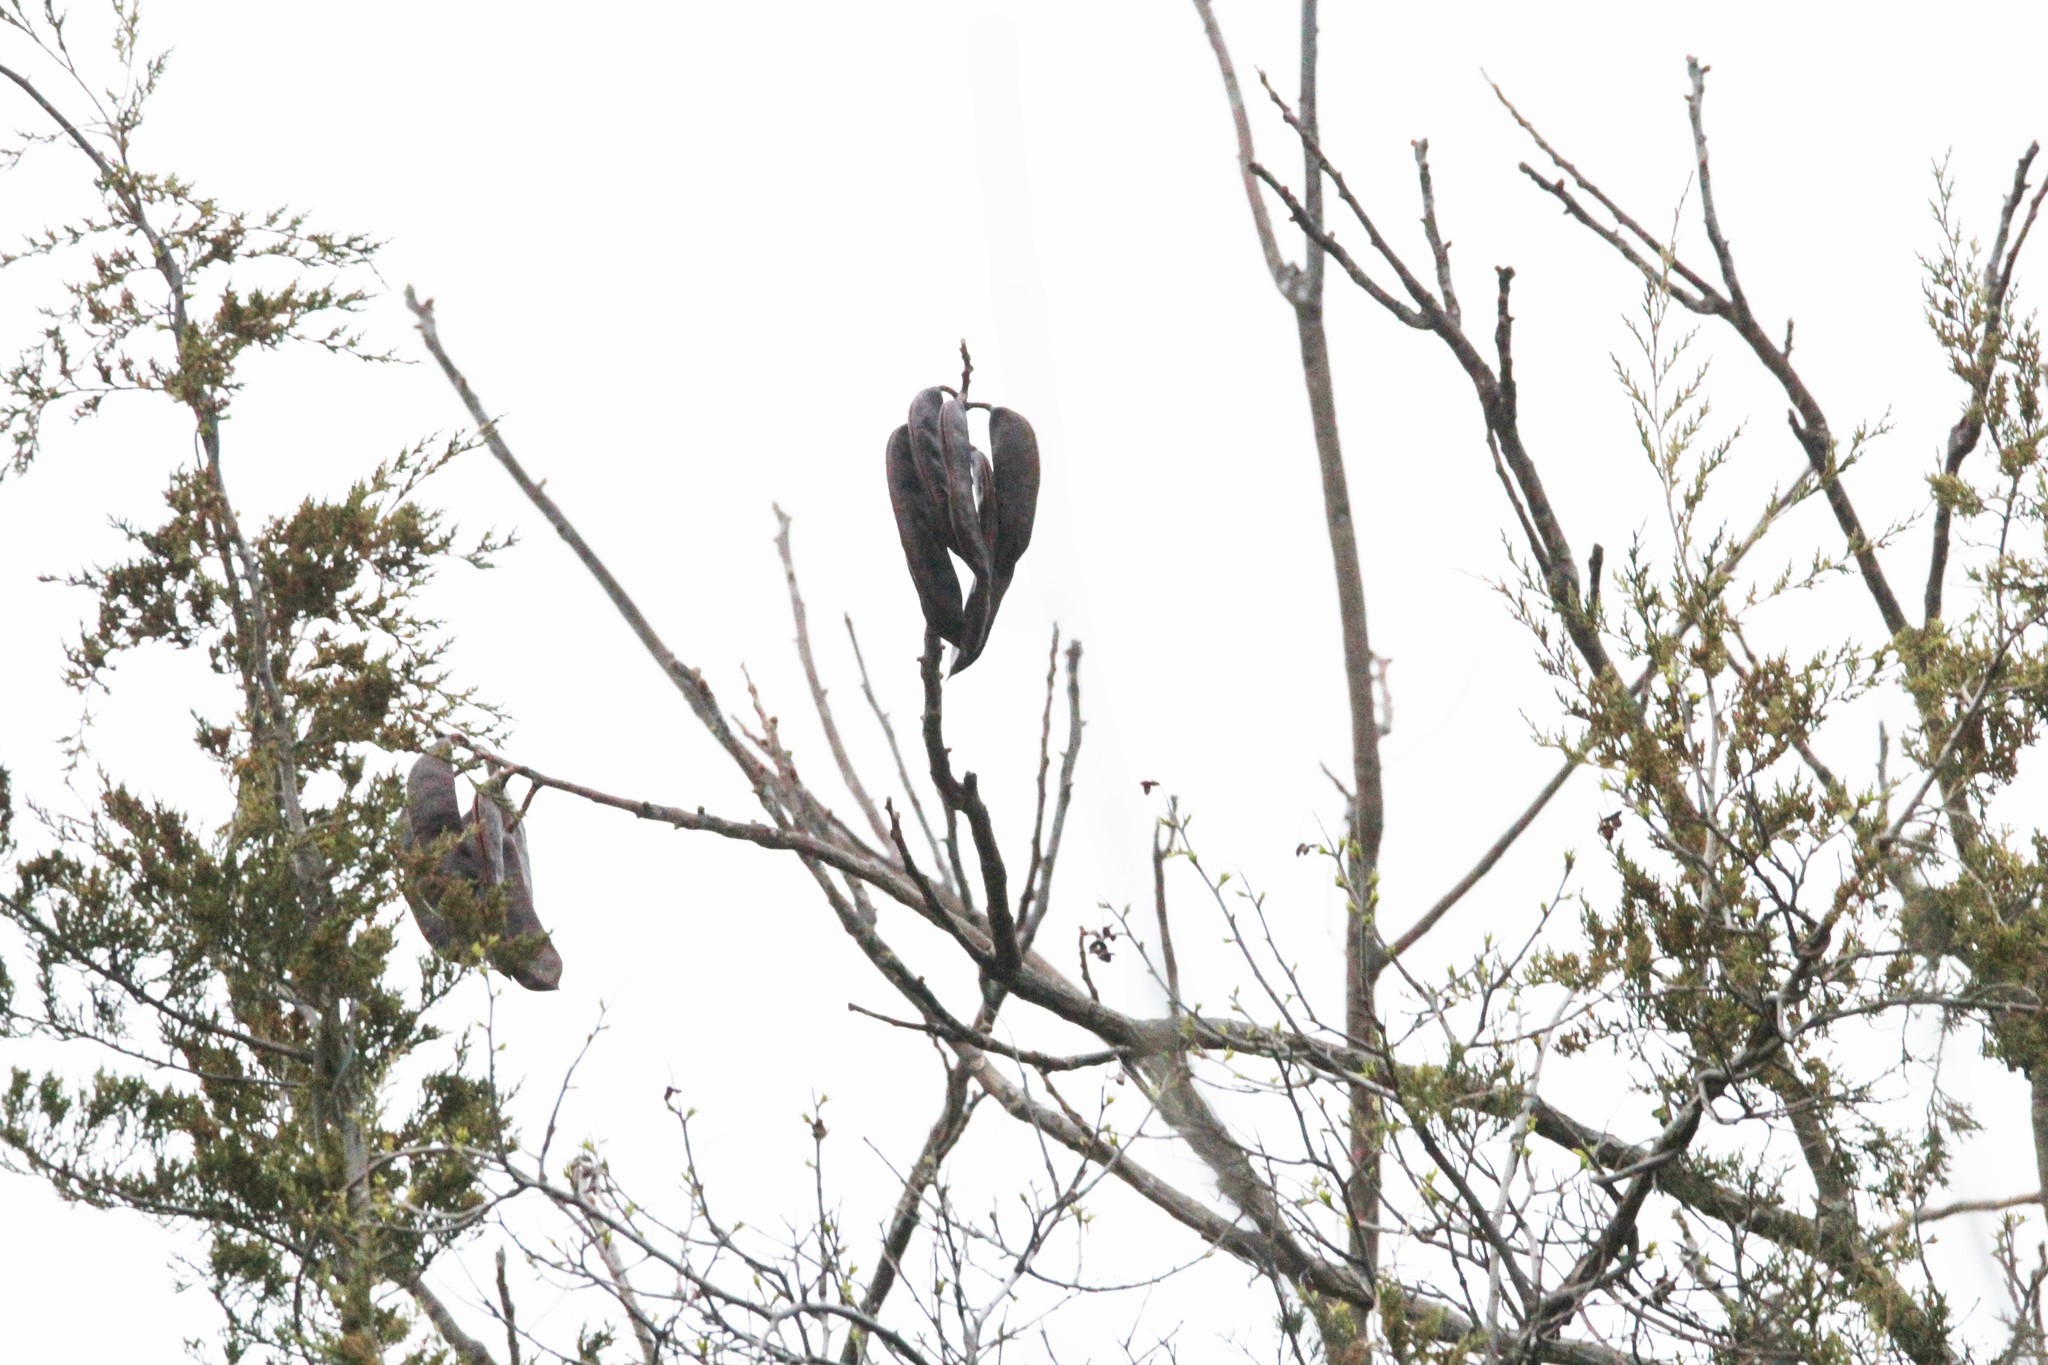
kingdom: Plantae
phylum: Tracheophyta
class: Magnoliopsida
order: Fabales
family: Fabaceae
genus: Gymnocladus
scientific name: Gymnocladus dioicus
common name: Kentucky coffee-tree
